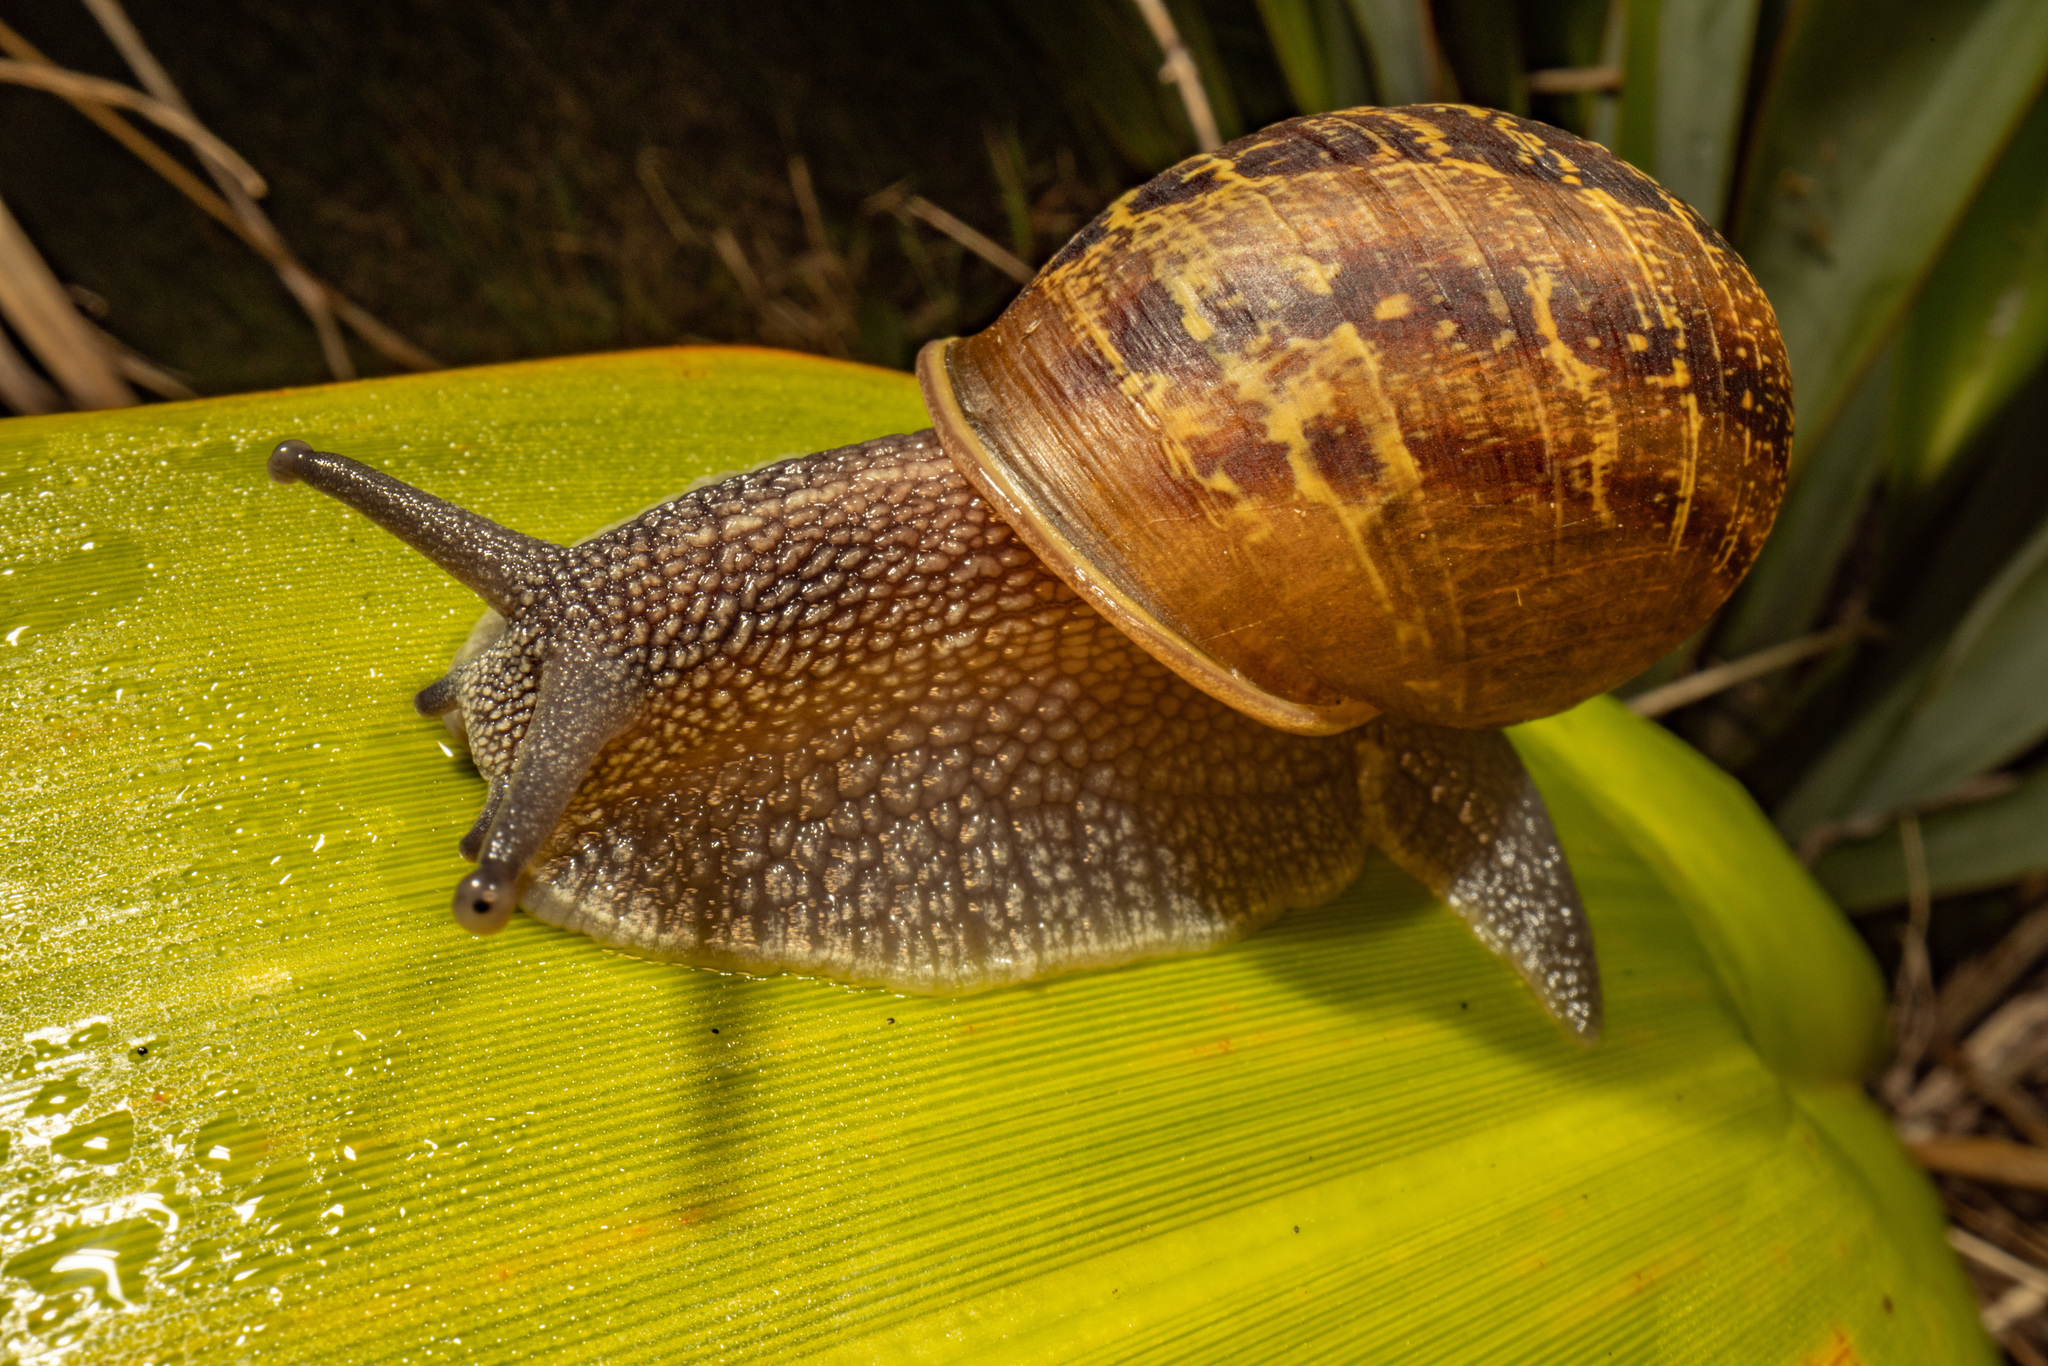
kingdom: Animalia
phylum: Mollusca
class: Gastropoda
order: Stylommatophora
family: Helicidae
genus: Cornu
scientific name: Cornu aspersum
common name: Brown garden snail
